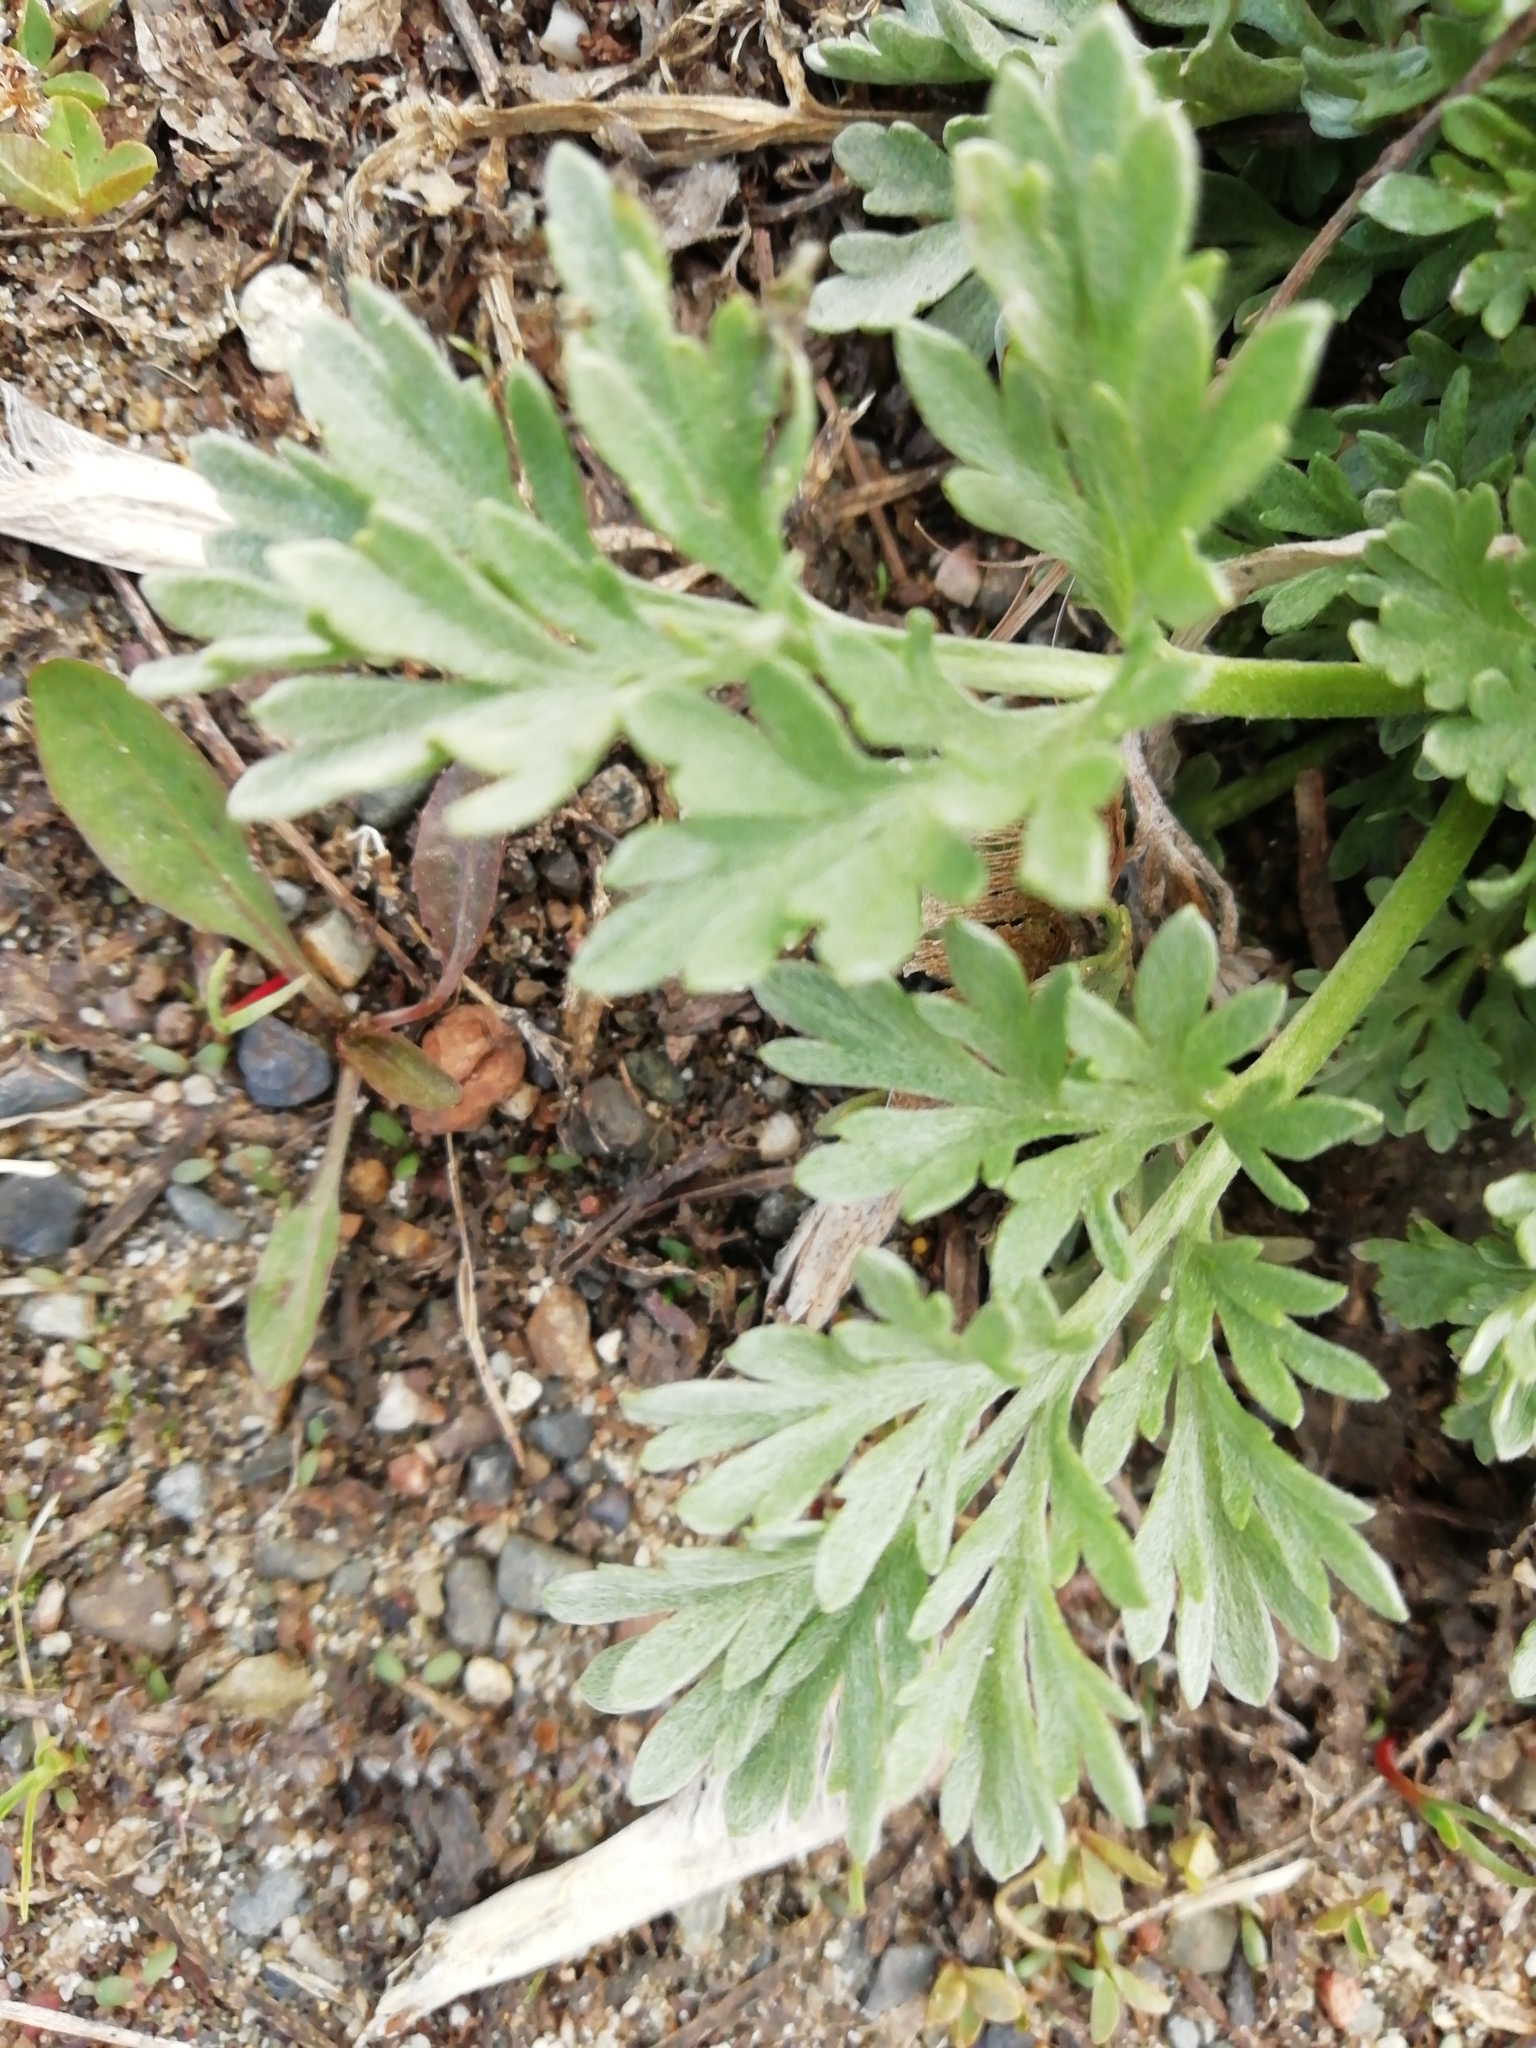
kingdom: Plantae
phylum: Tracheophyta
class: Magnoliopsida
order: Asterales
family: Asteraceae
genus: Artemisia
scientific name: Artemisia absinthium
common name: Wormwood
